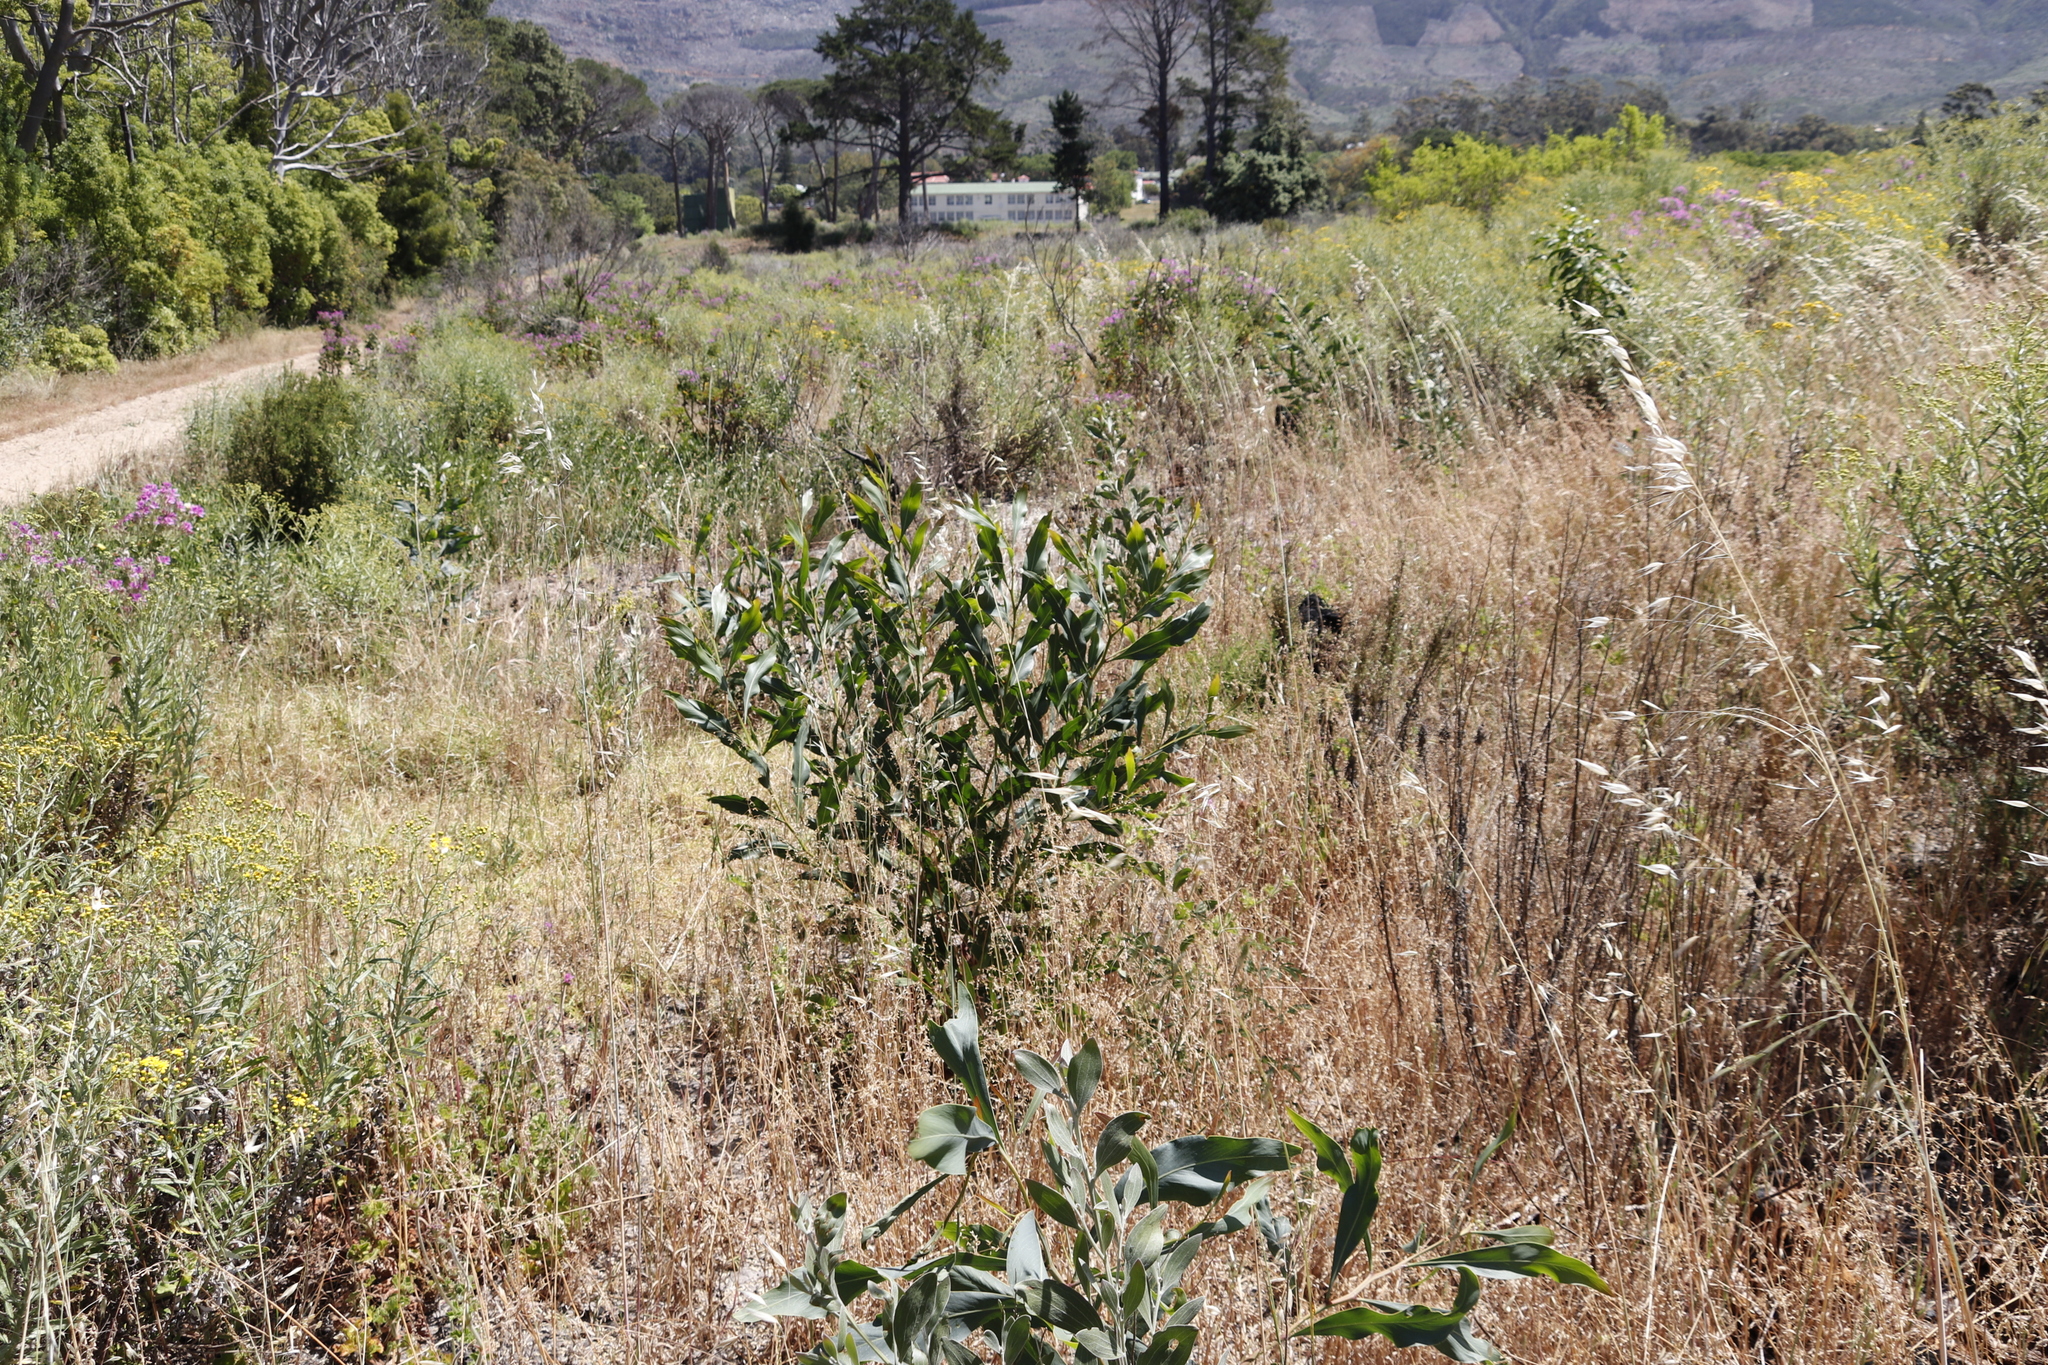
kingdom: Plantae
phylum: Tracheophyta
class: Magnoliopsida
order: Fabales
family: Fabaceae
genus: Acacia
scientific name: Acacia saligna
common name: Orange wattle
